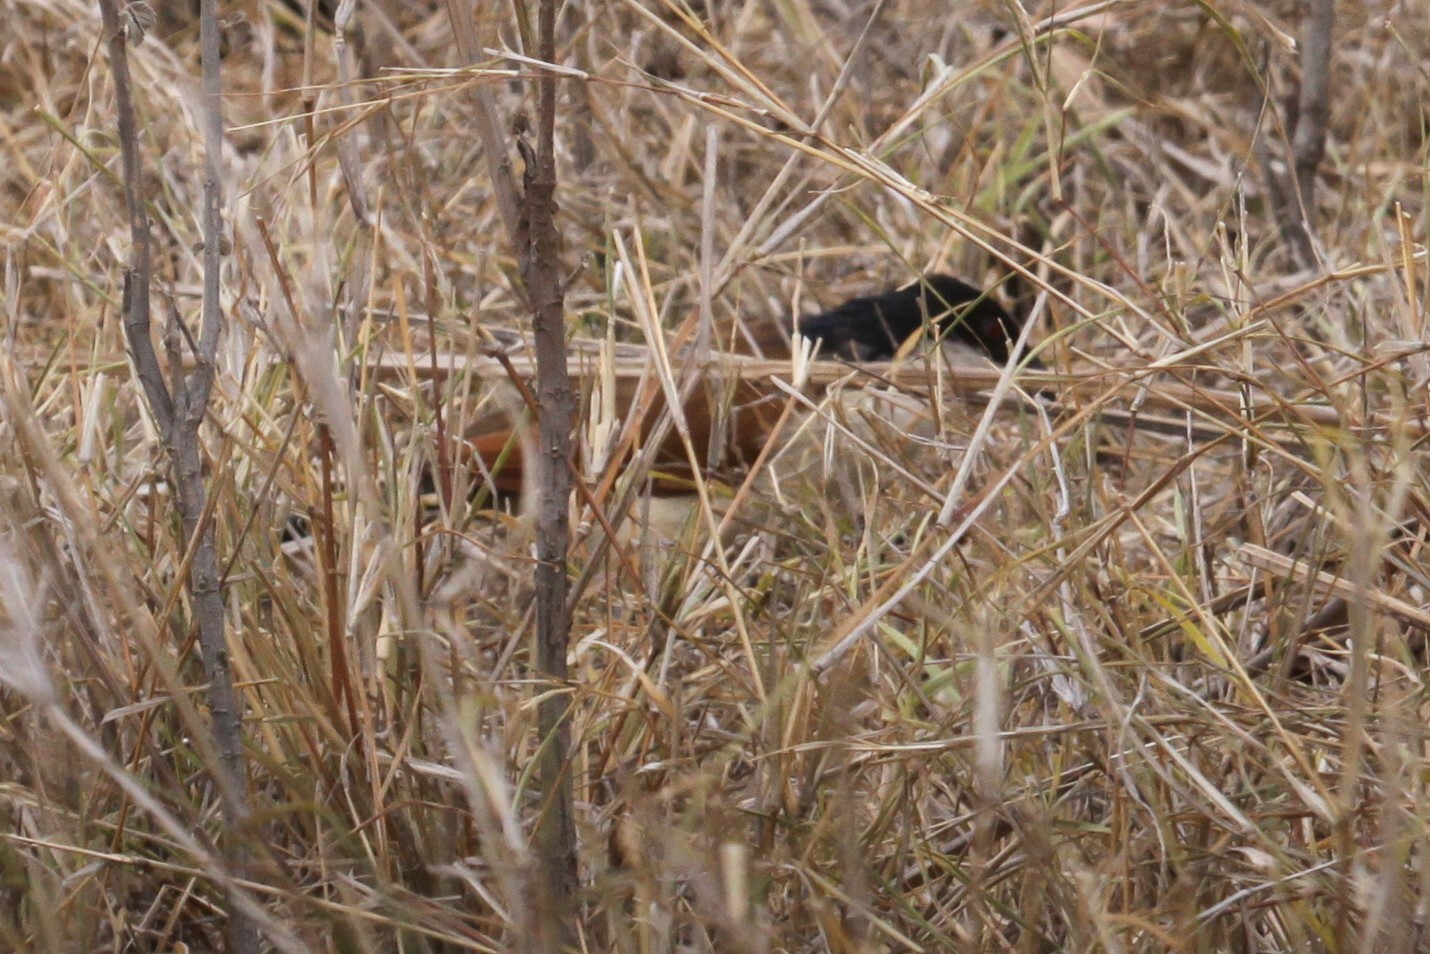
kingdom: Animalia
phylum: Chordata
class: Aves
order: Cuculiformes
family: Cuculidae
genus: Centropus
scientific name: Centropus superciliosus
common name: White-browed coucal
